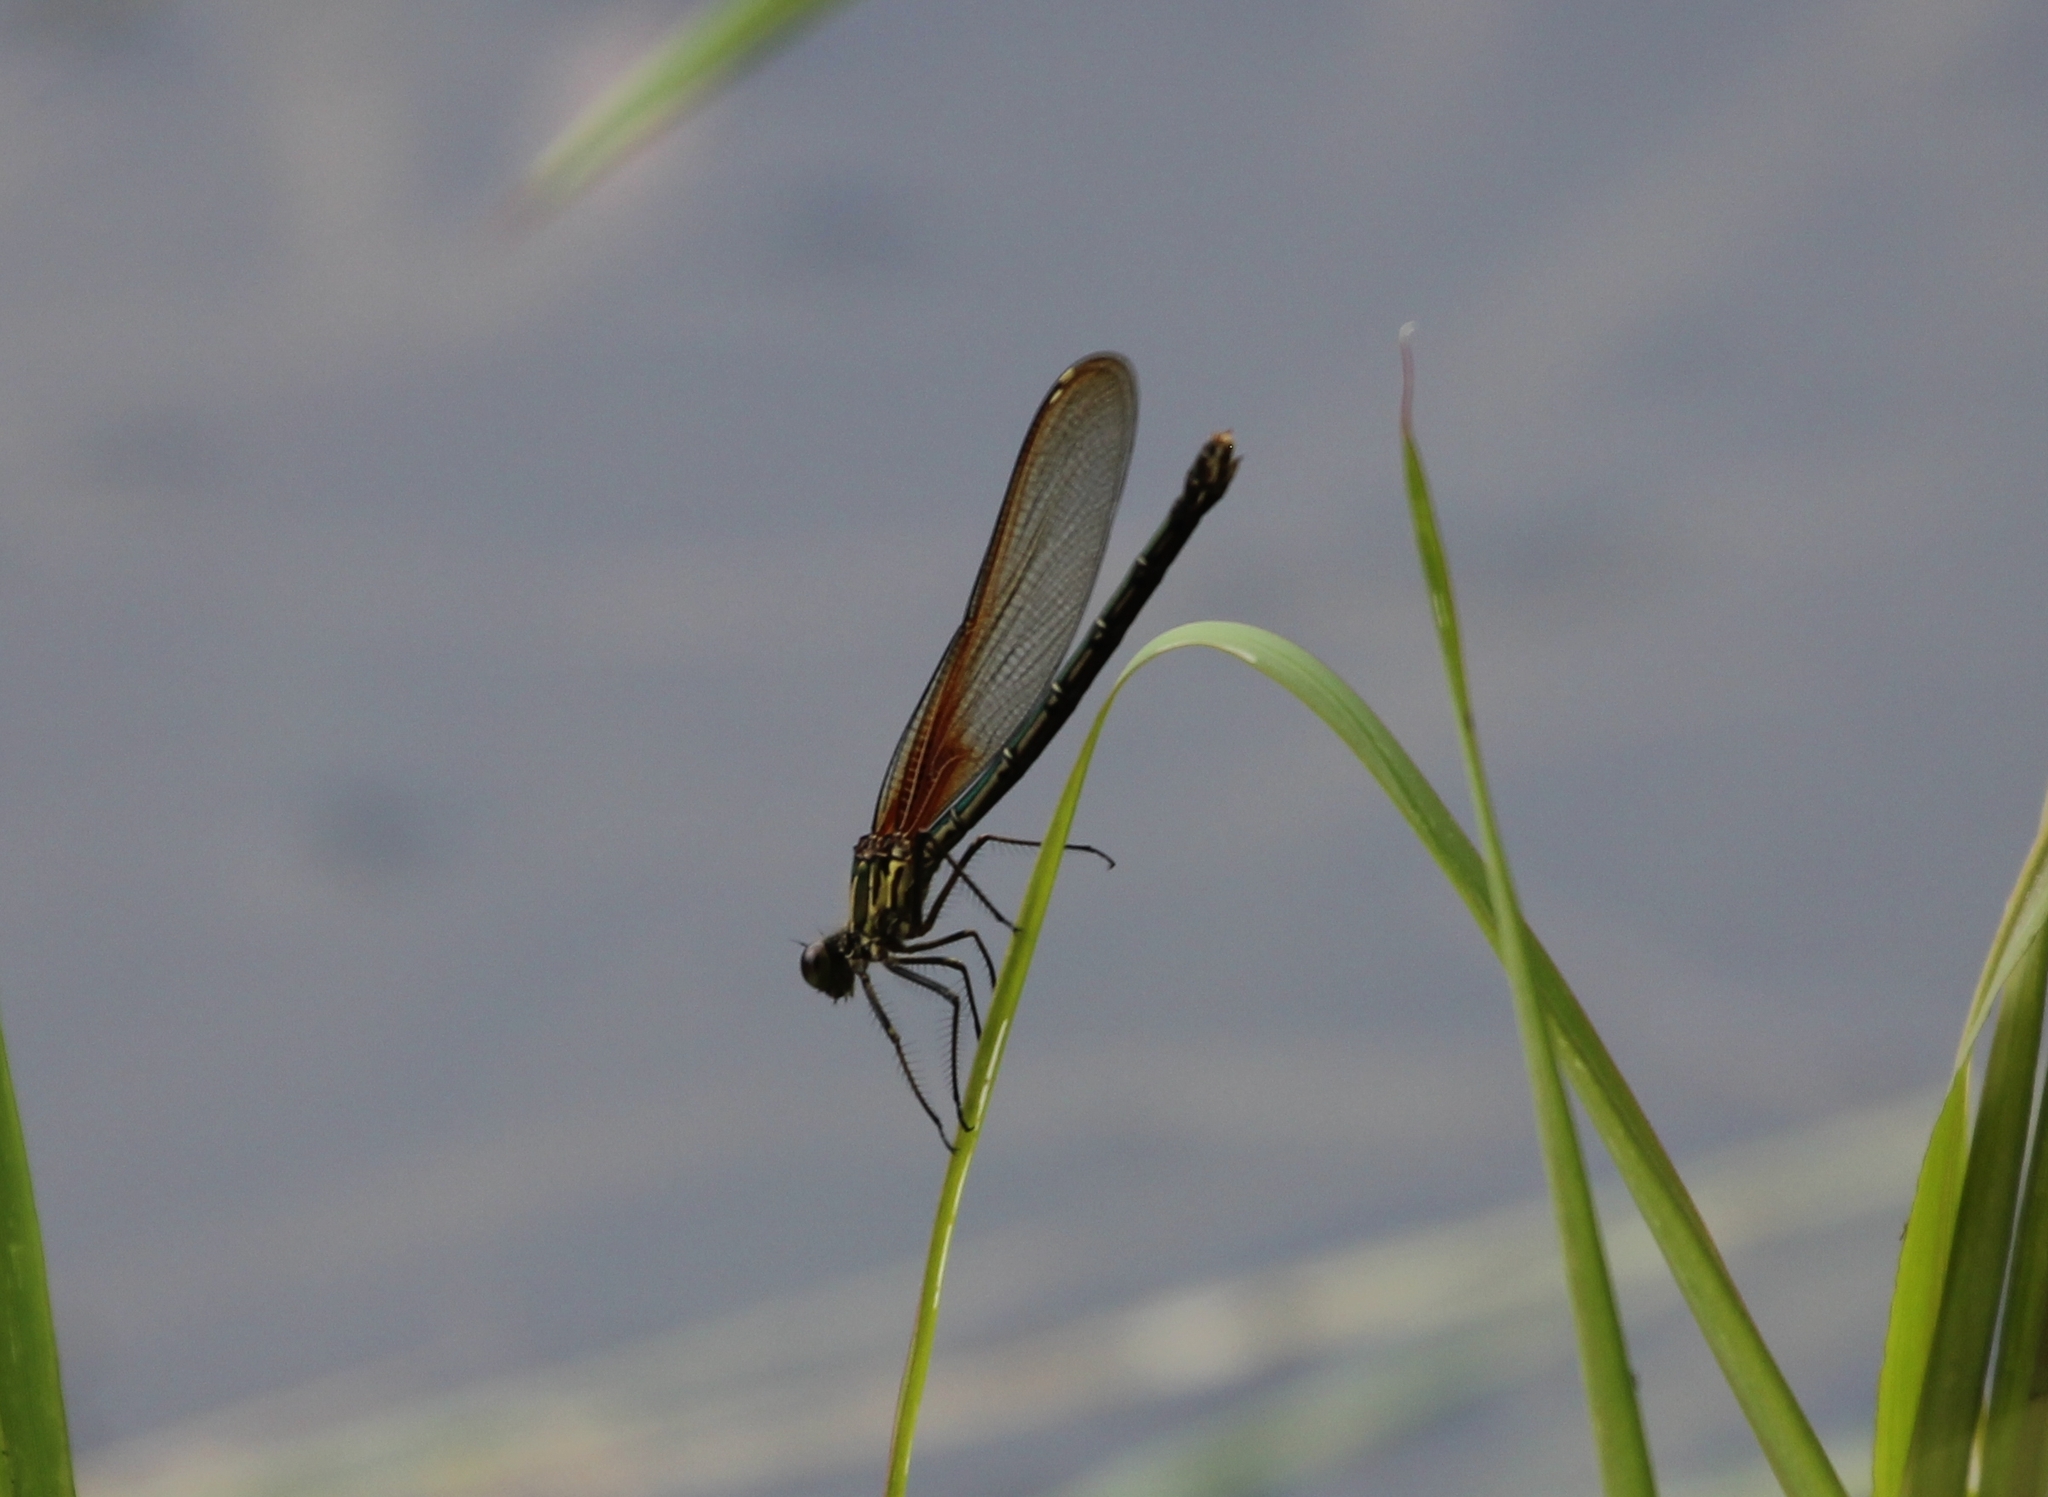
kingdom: Animalia
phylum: Arthropoda
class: Insecta
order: Odonata
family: Calopterygidae
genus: Hetaerina
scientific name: Hetaerina americana
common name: American rubyspot
